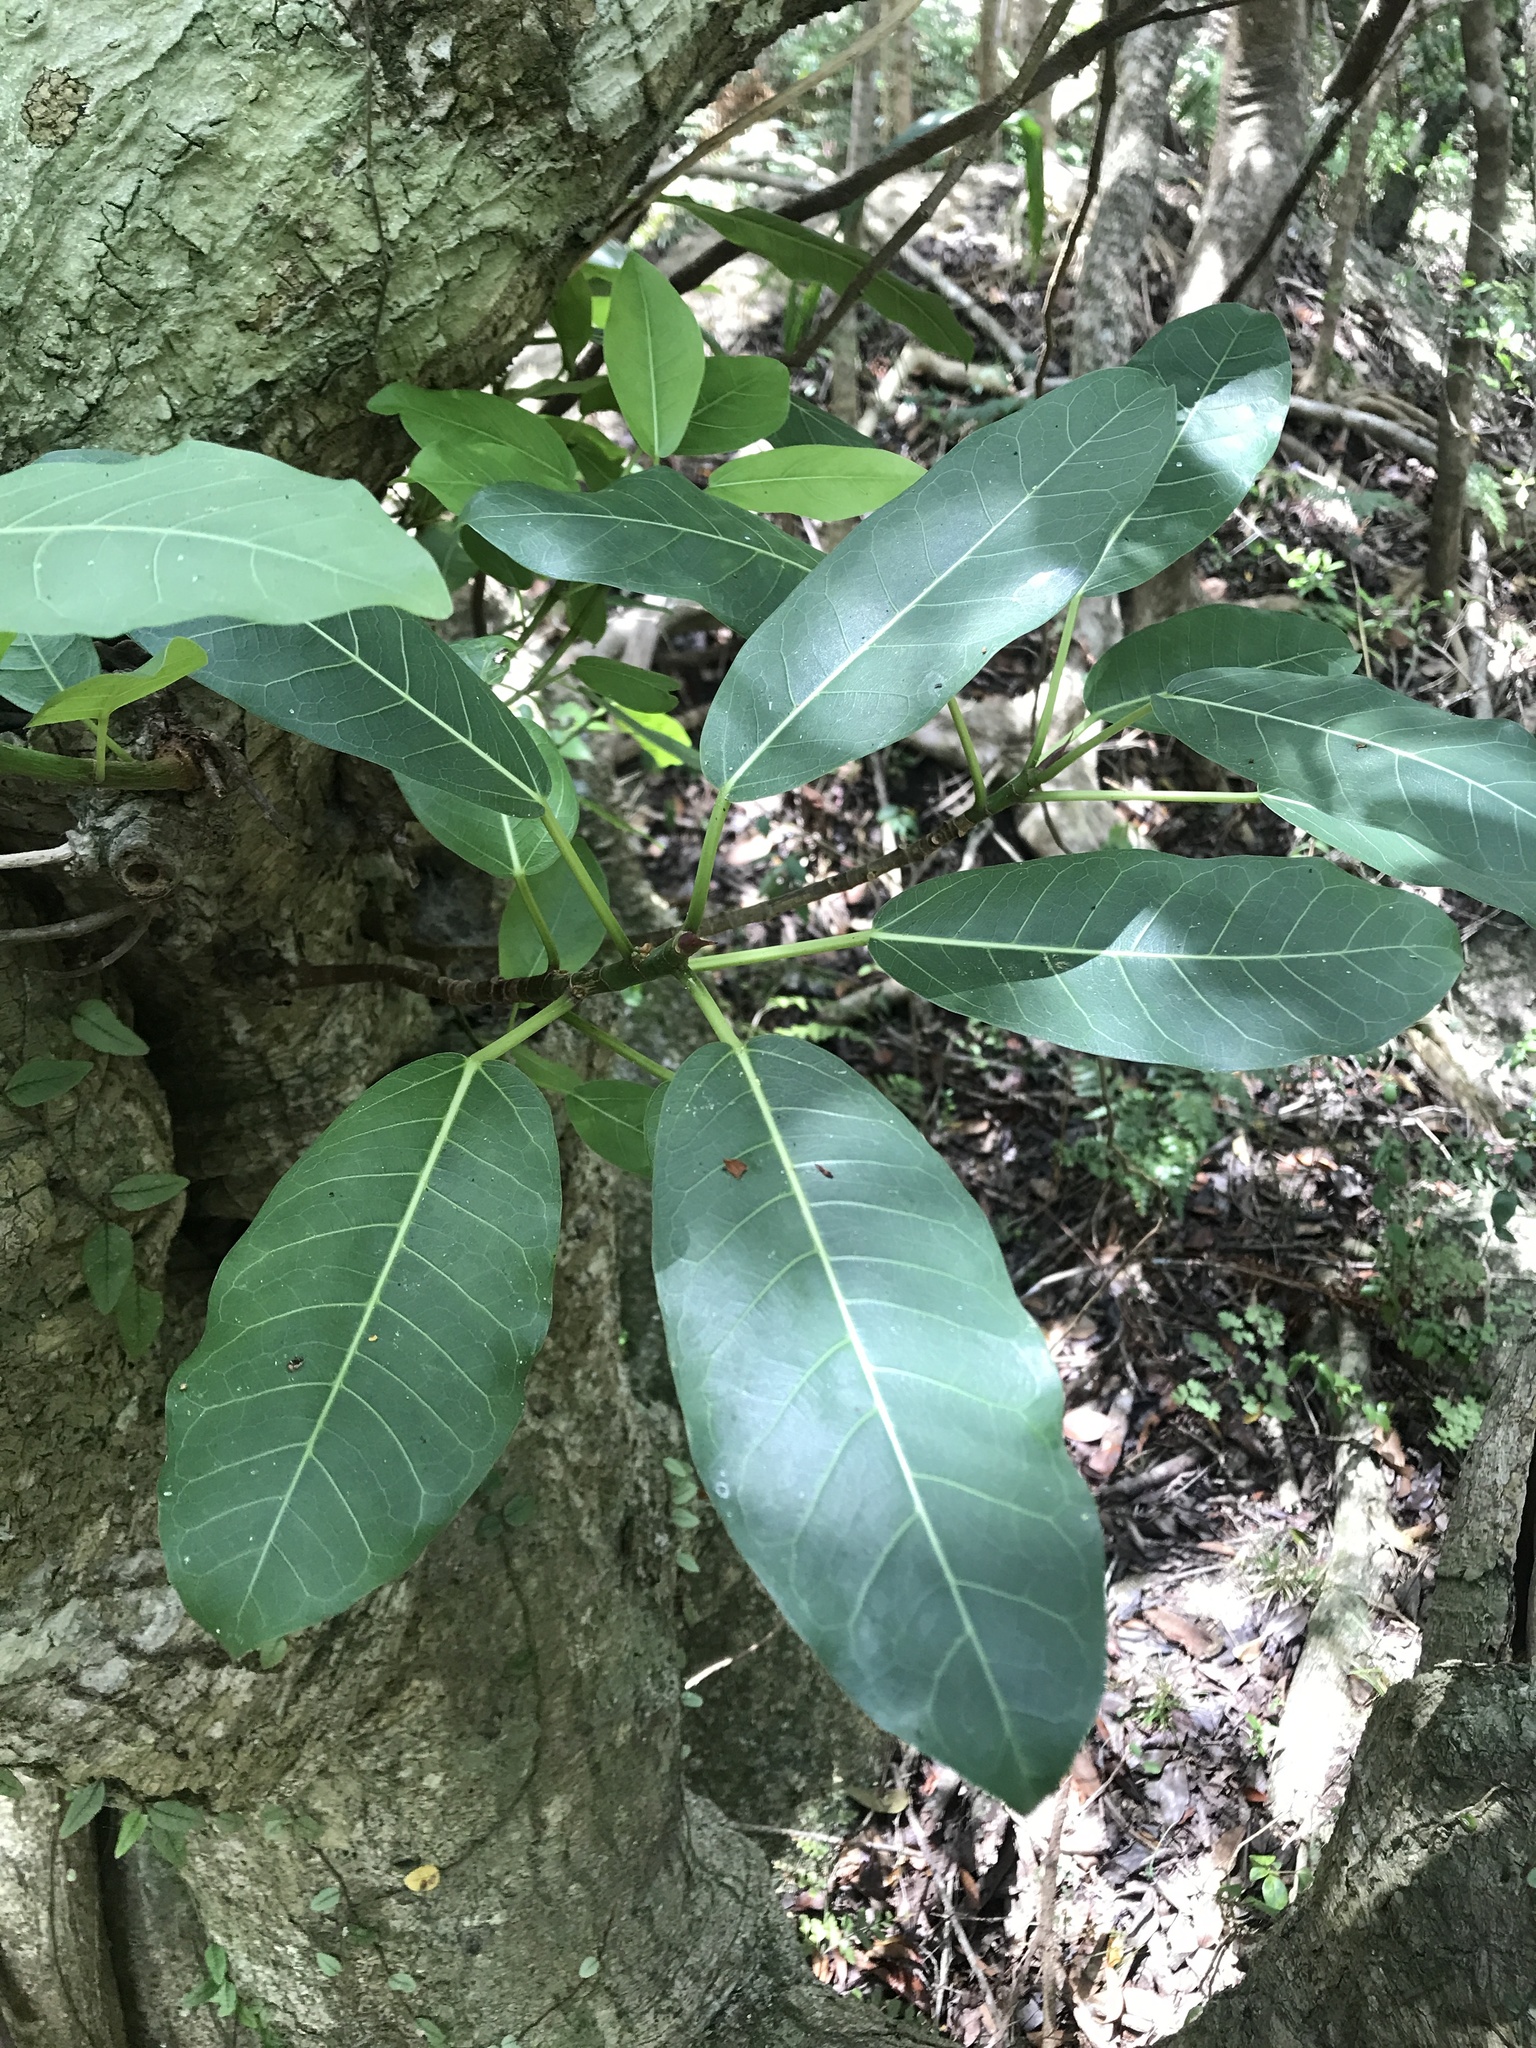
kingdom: Plantae
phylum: Tracheophyta
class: Magnoliopsida
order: Rosales
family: Moraceae
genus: Ficus
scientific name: Ficus luschnathiana
